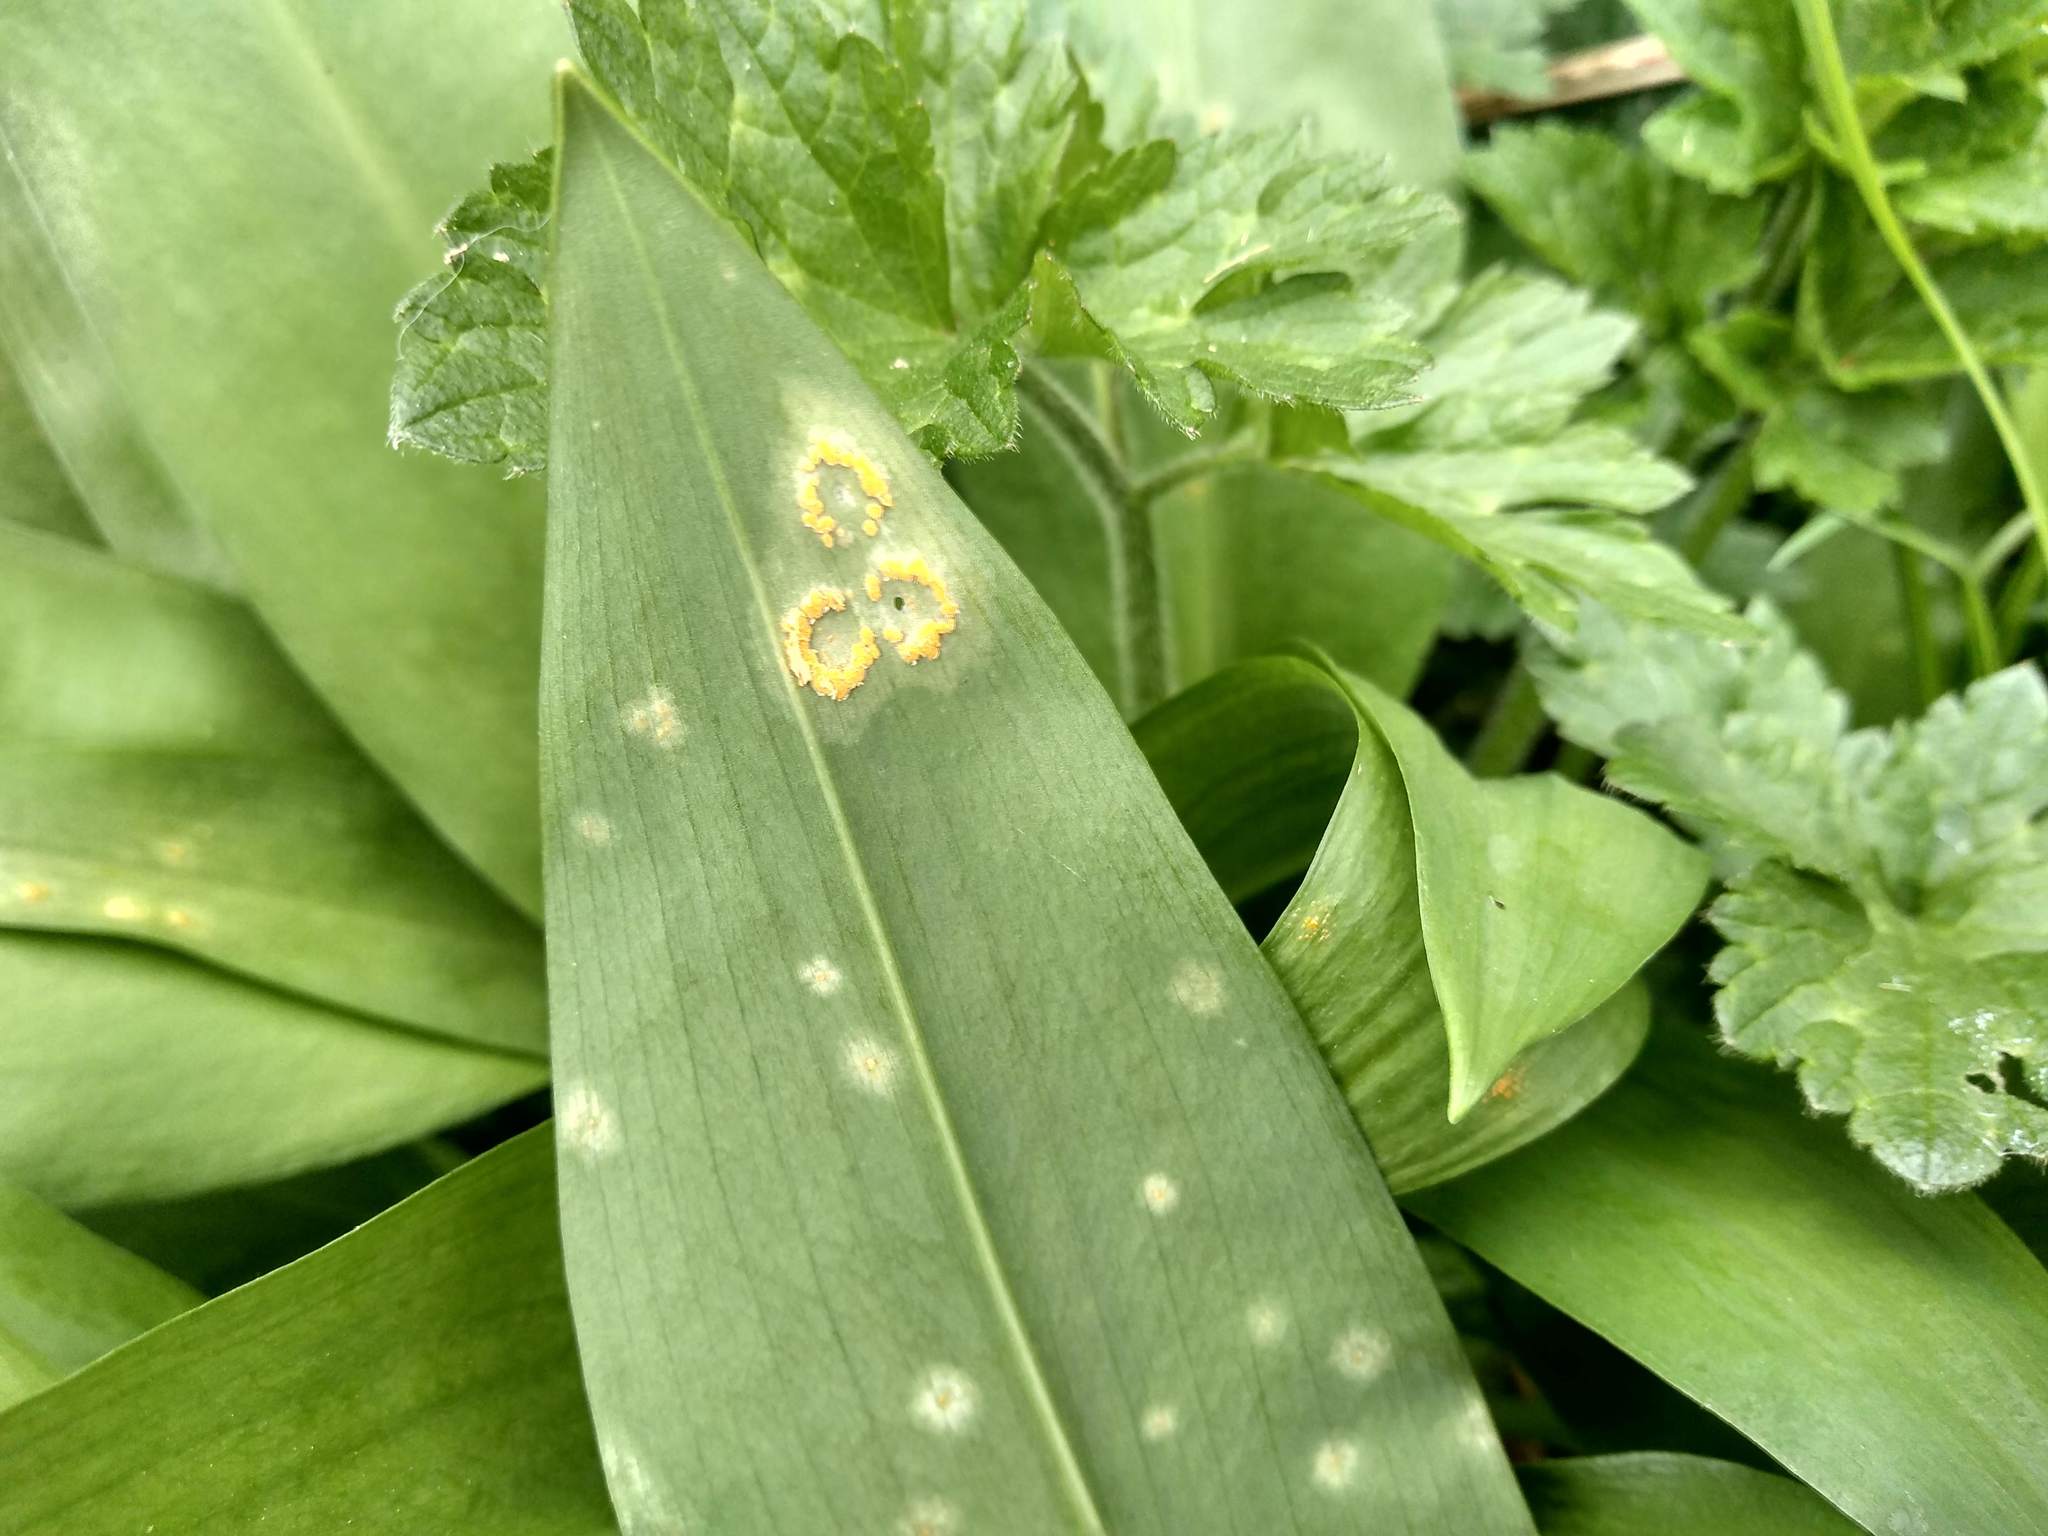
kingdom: Fungi
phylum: Basidiomycota
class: Pucciniomycetes
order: Pucciniales
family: Pucciniaceae
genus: Puccinia
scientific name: Puccinia sessilis
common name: Arum rust
